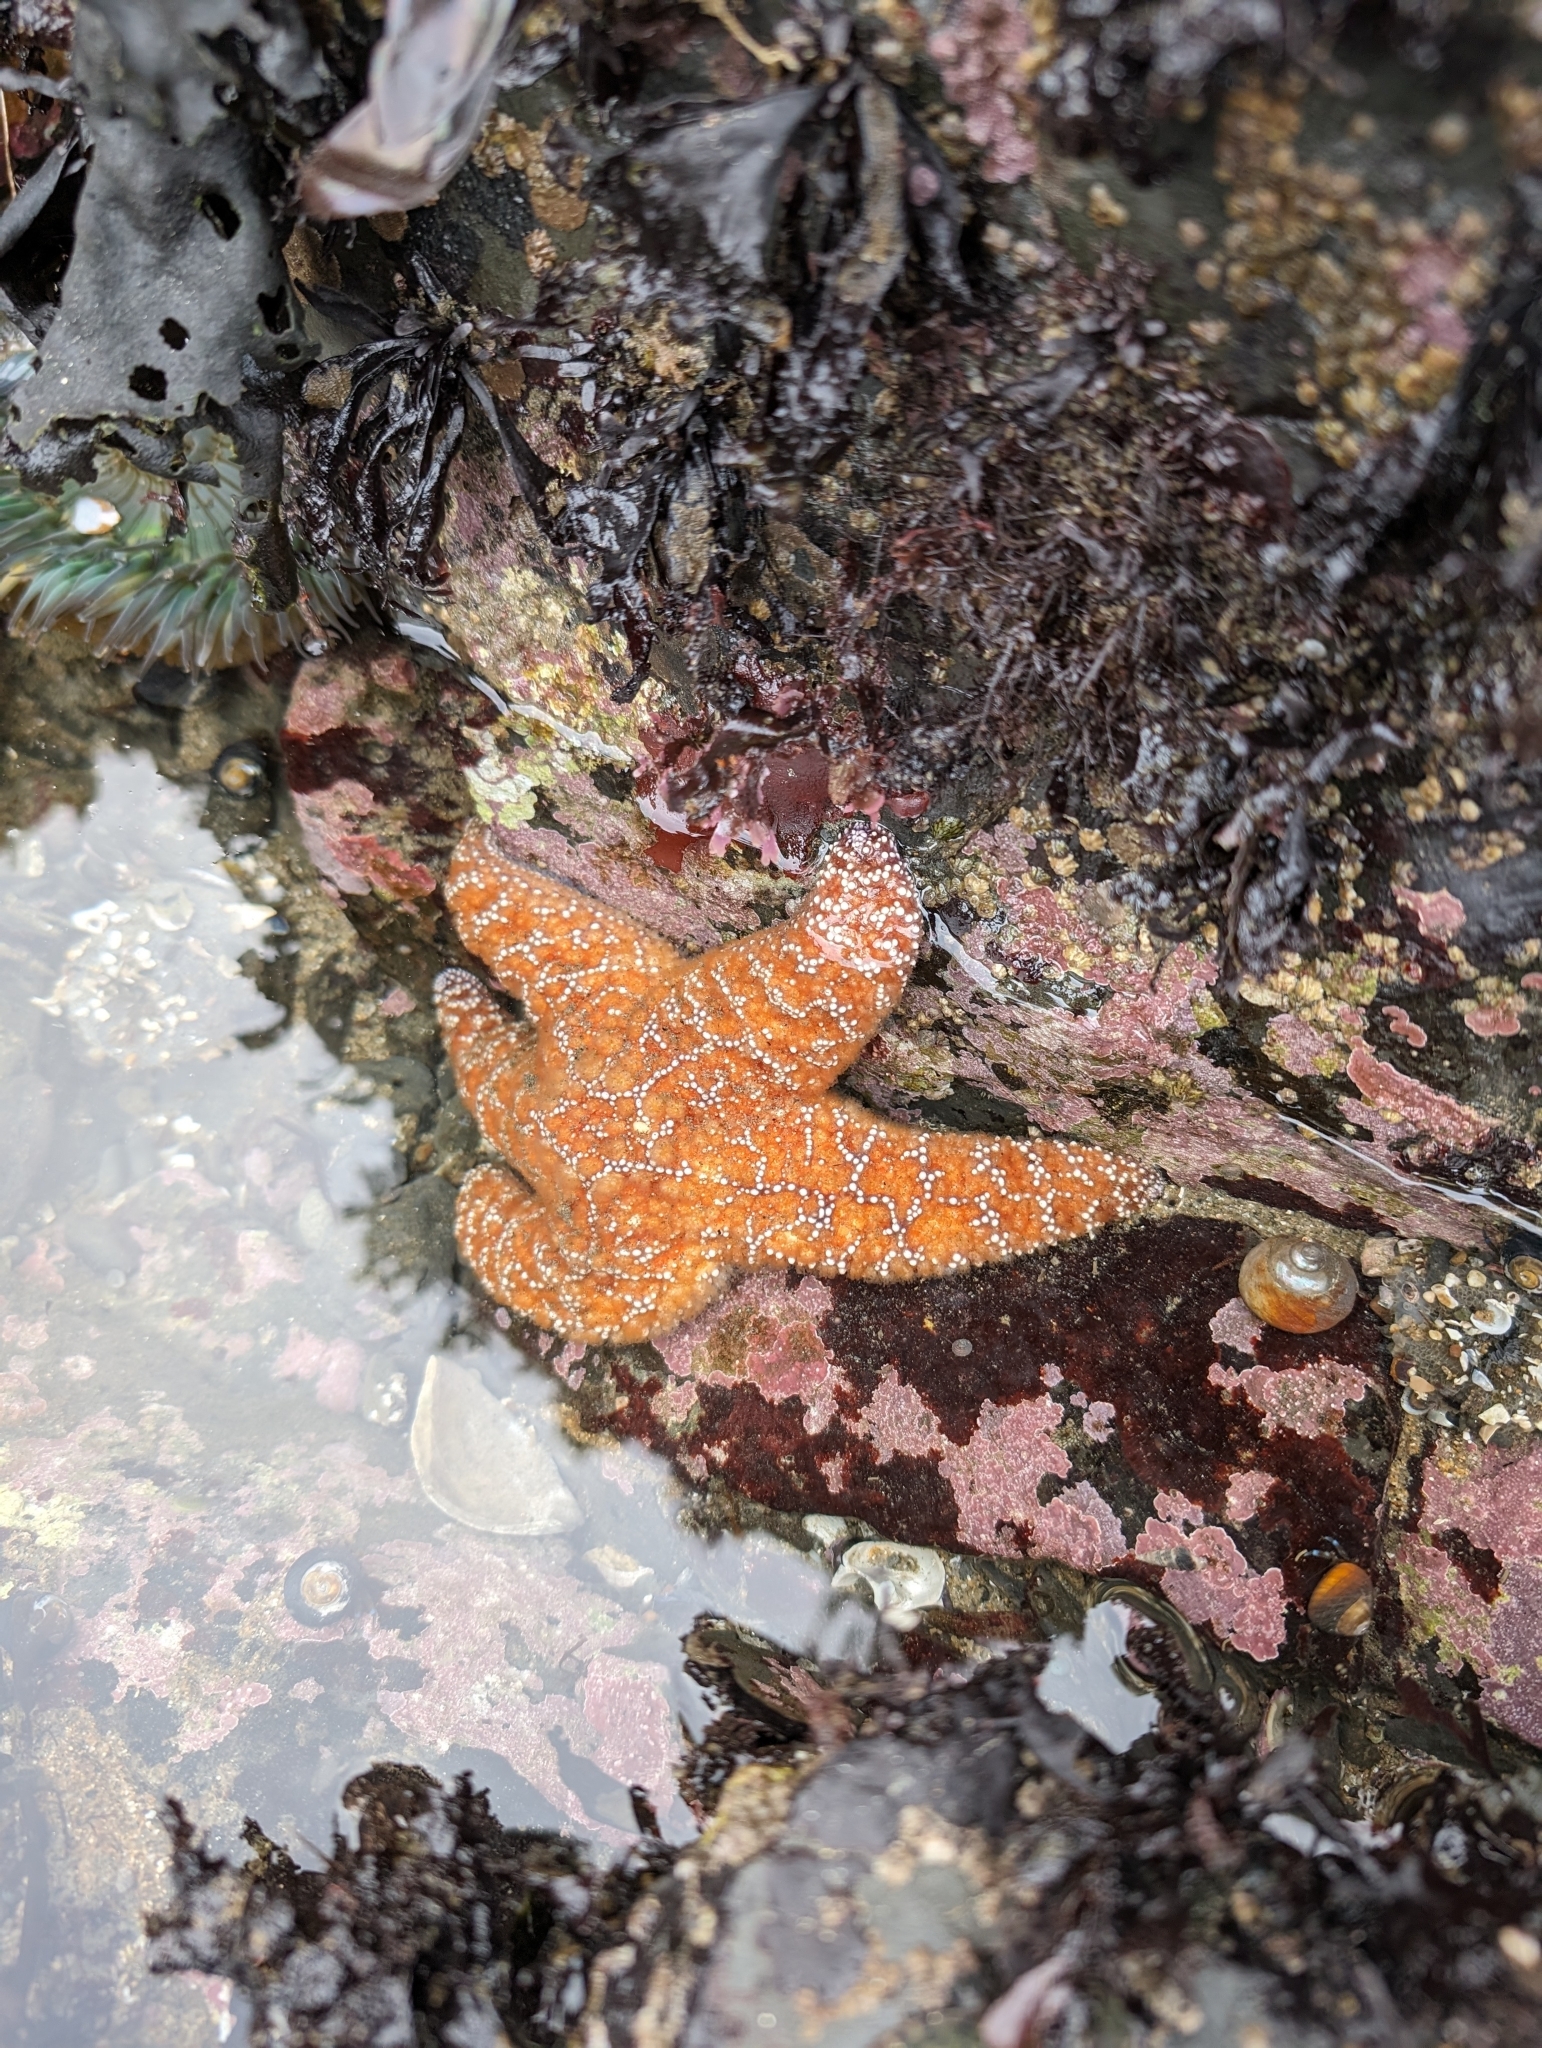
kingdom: Animalia
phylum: Echinodermata
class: Asteroidea
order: Forcipulatida
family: Asteriidae
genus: Pisaster
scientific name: Pisaster ochraceus
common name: Ochre stars
